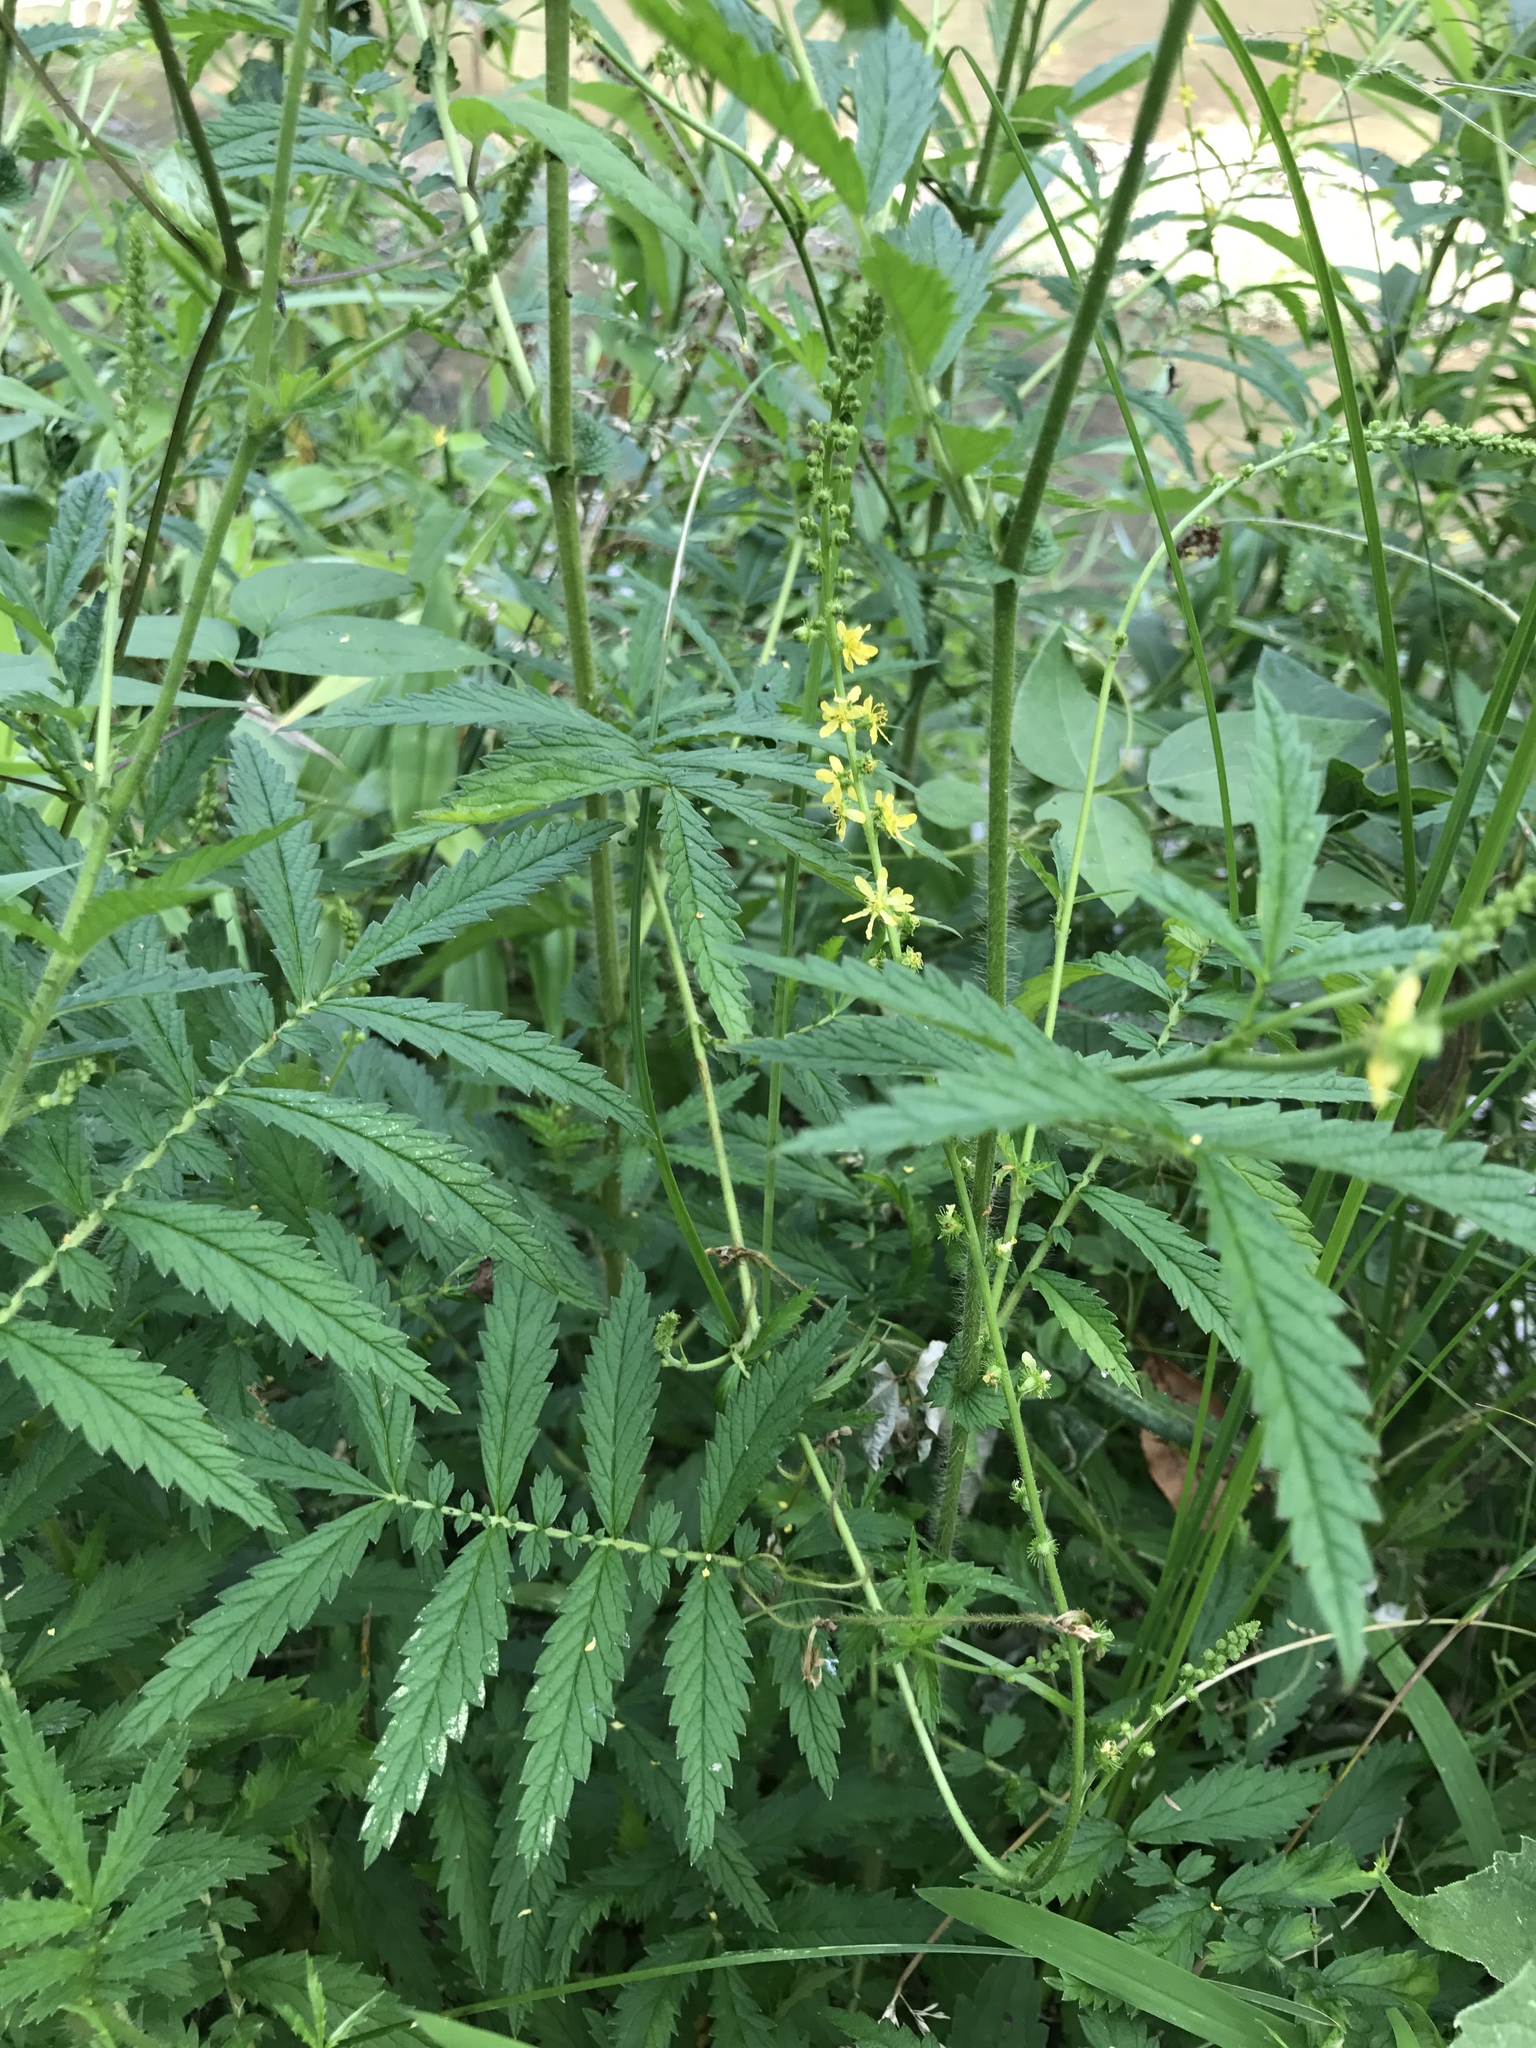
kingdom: Plantae
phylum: Tracheophyta
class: Magnoliopsida
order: Rosales
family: Rosaceae
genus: Agrimonia
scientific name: Agrimonia parviflora
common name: Harvest-lice
